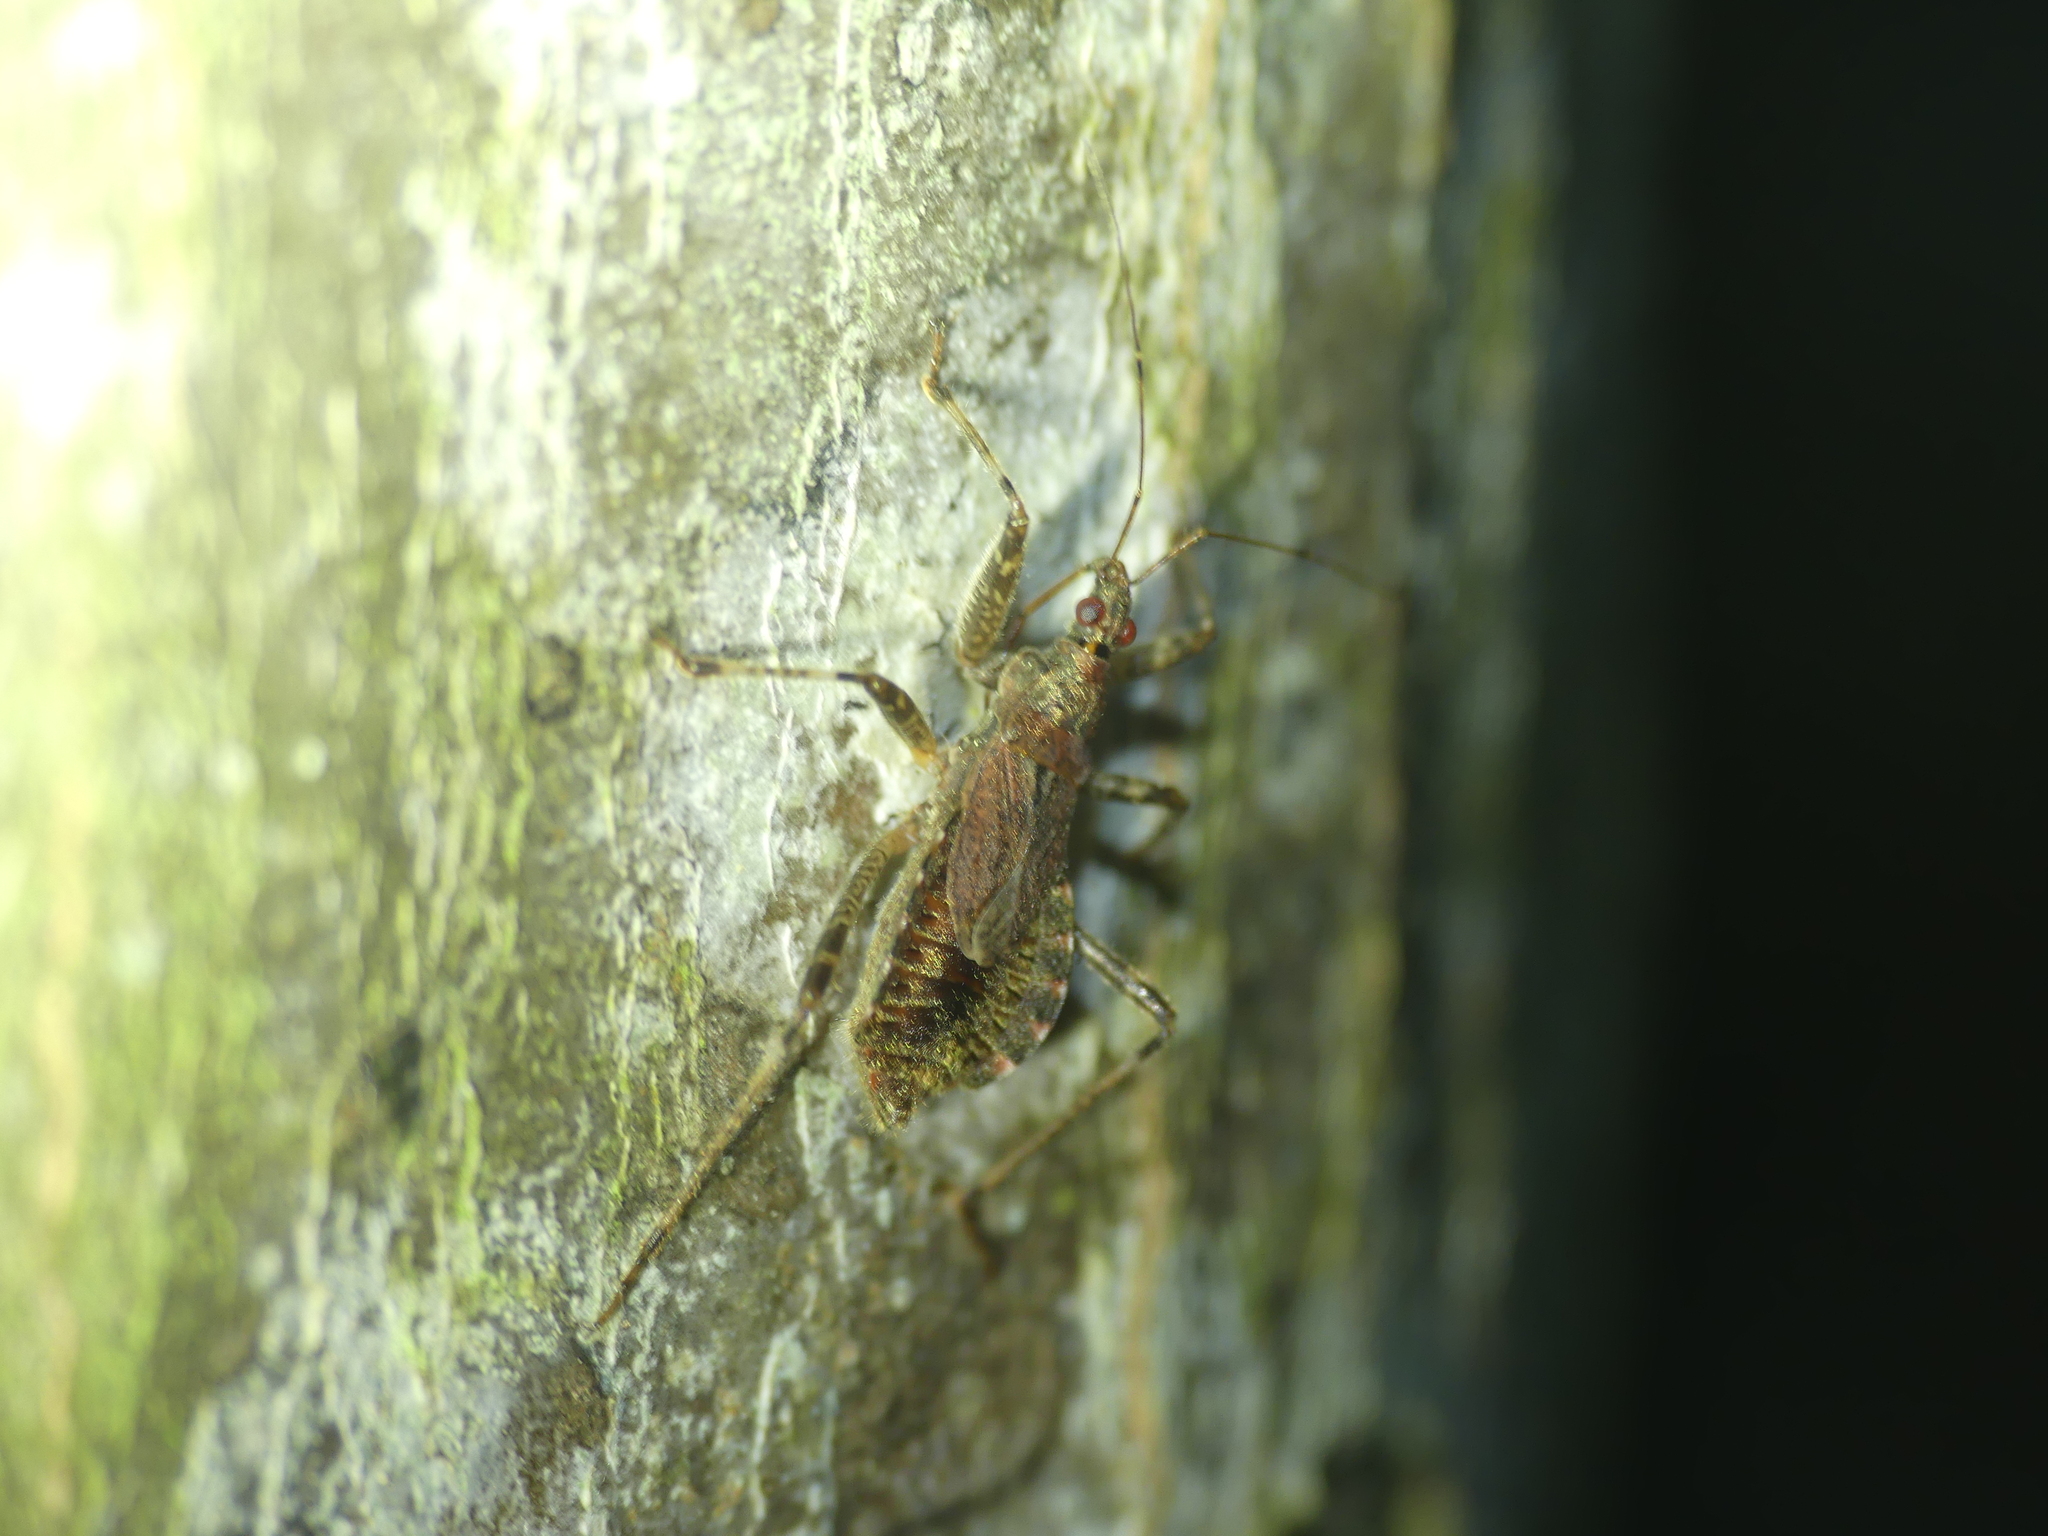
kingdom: Animalia
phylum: Arthropoda
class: Insecta
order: Hemiptera
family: Nabidae
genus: Himacerus
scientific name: Himacerus apterus
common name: Tree damsel bug
